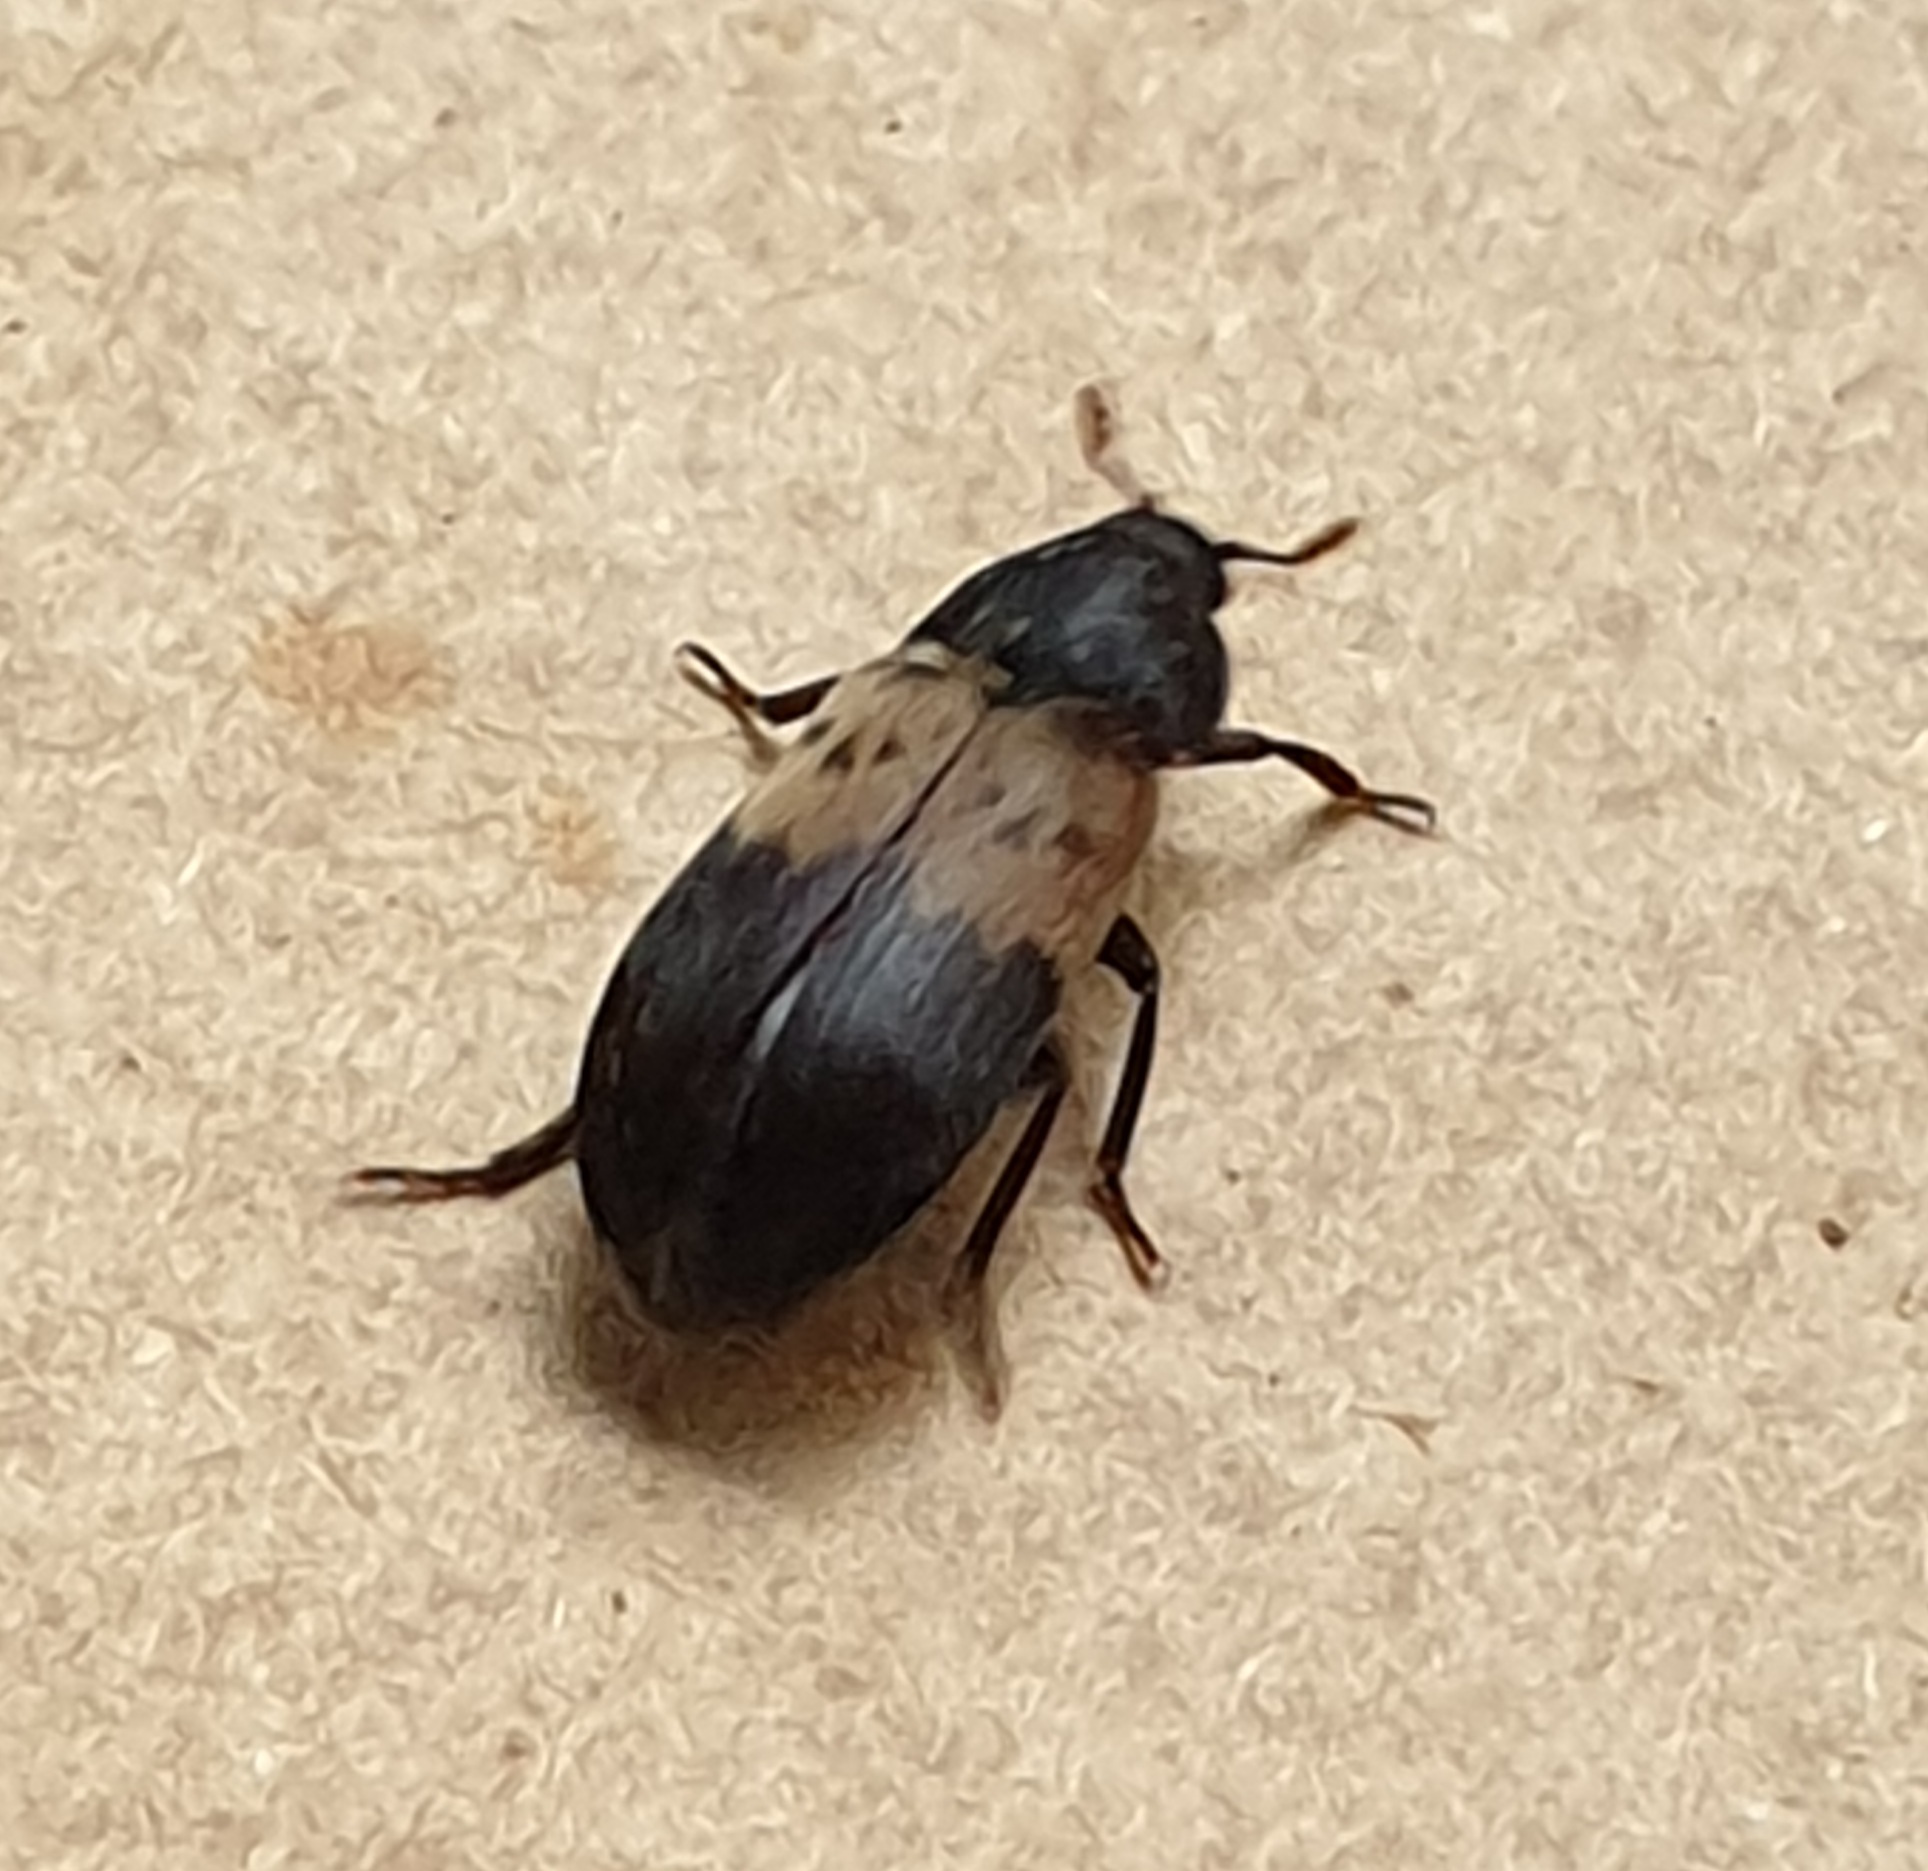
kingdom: Animalia
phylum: Arthropoda
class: Insecta
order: Coleoptera
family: Dermestidae
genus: Dermestes
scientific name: Dermestes lardarius
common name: Larder beetle
